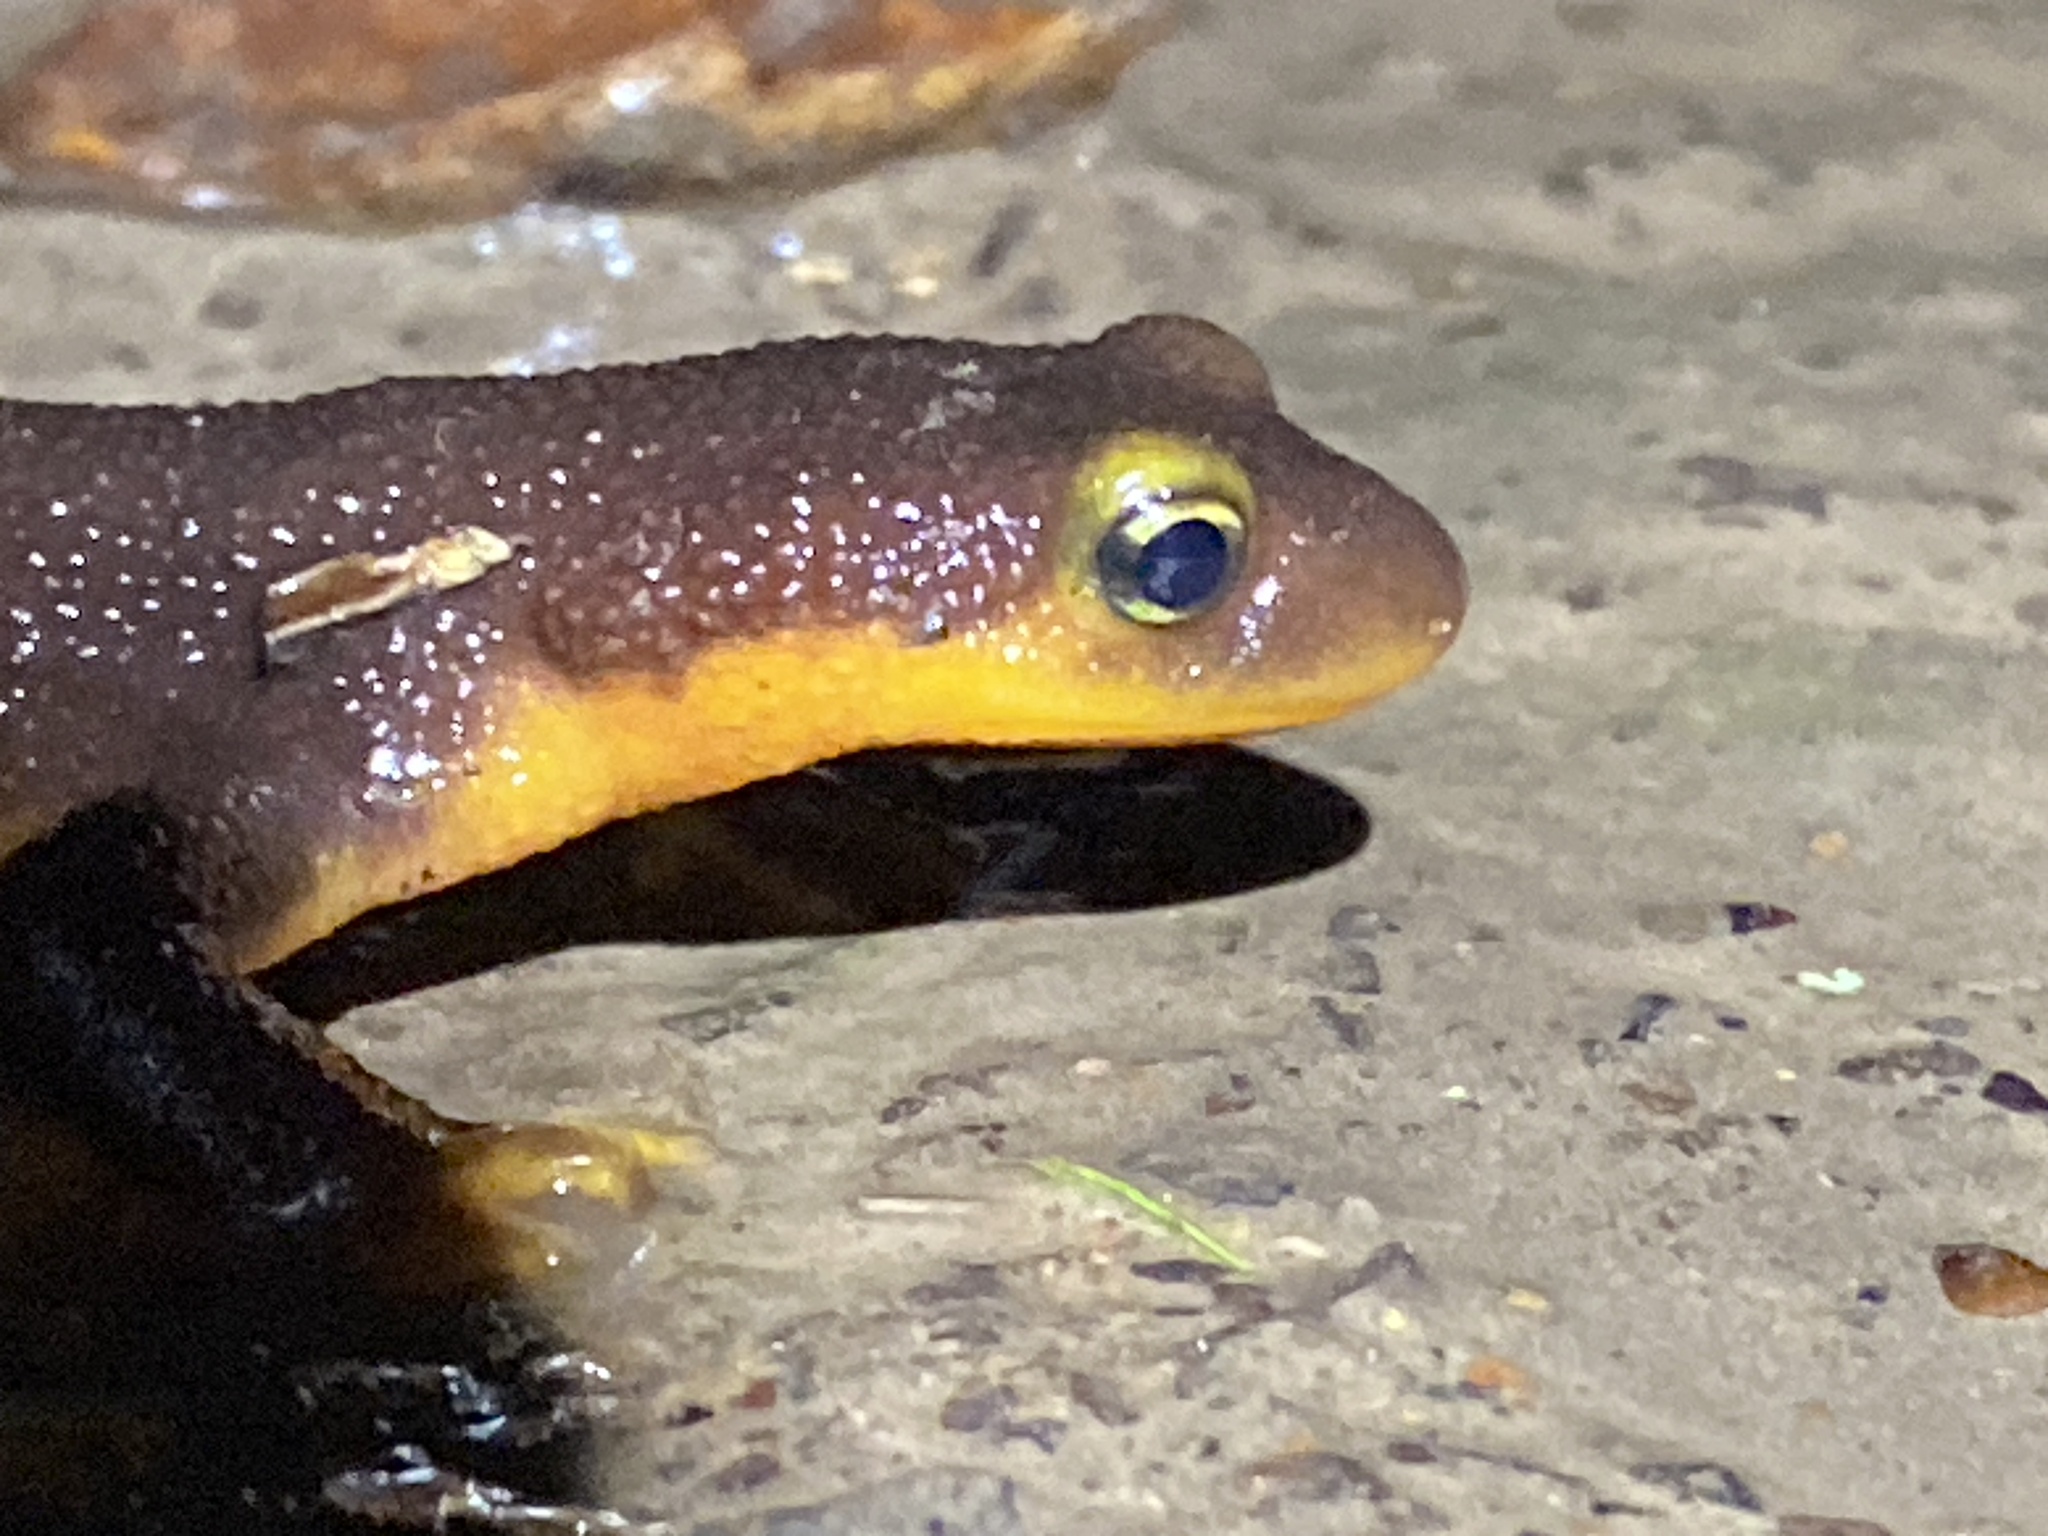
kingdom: Animalia
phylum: Chordata
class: Amphibia
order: Caudata
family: Salamandridae
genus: Taricha
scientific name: Taricha torosa
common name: California newt
